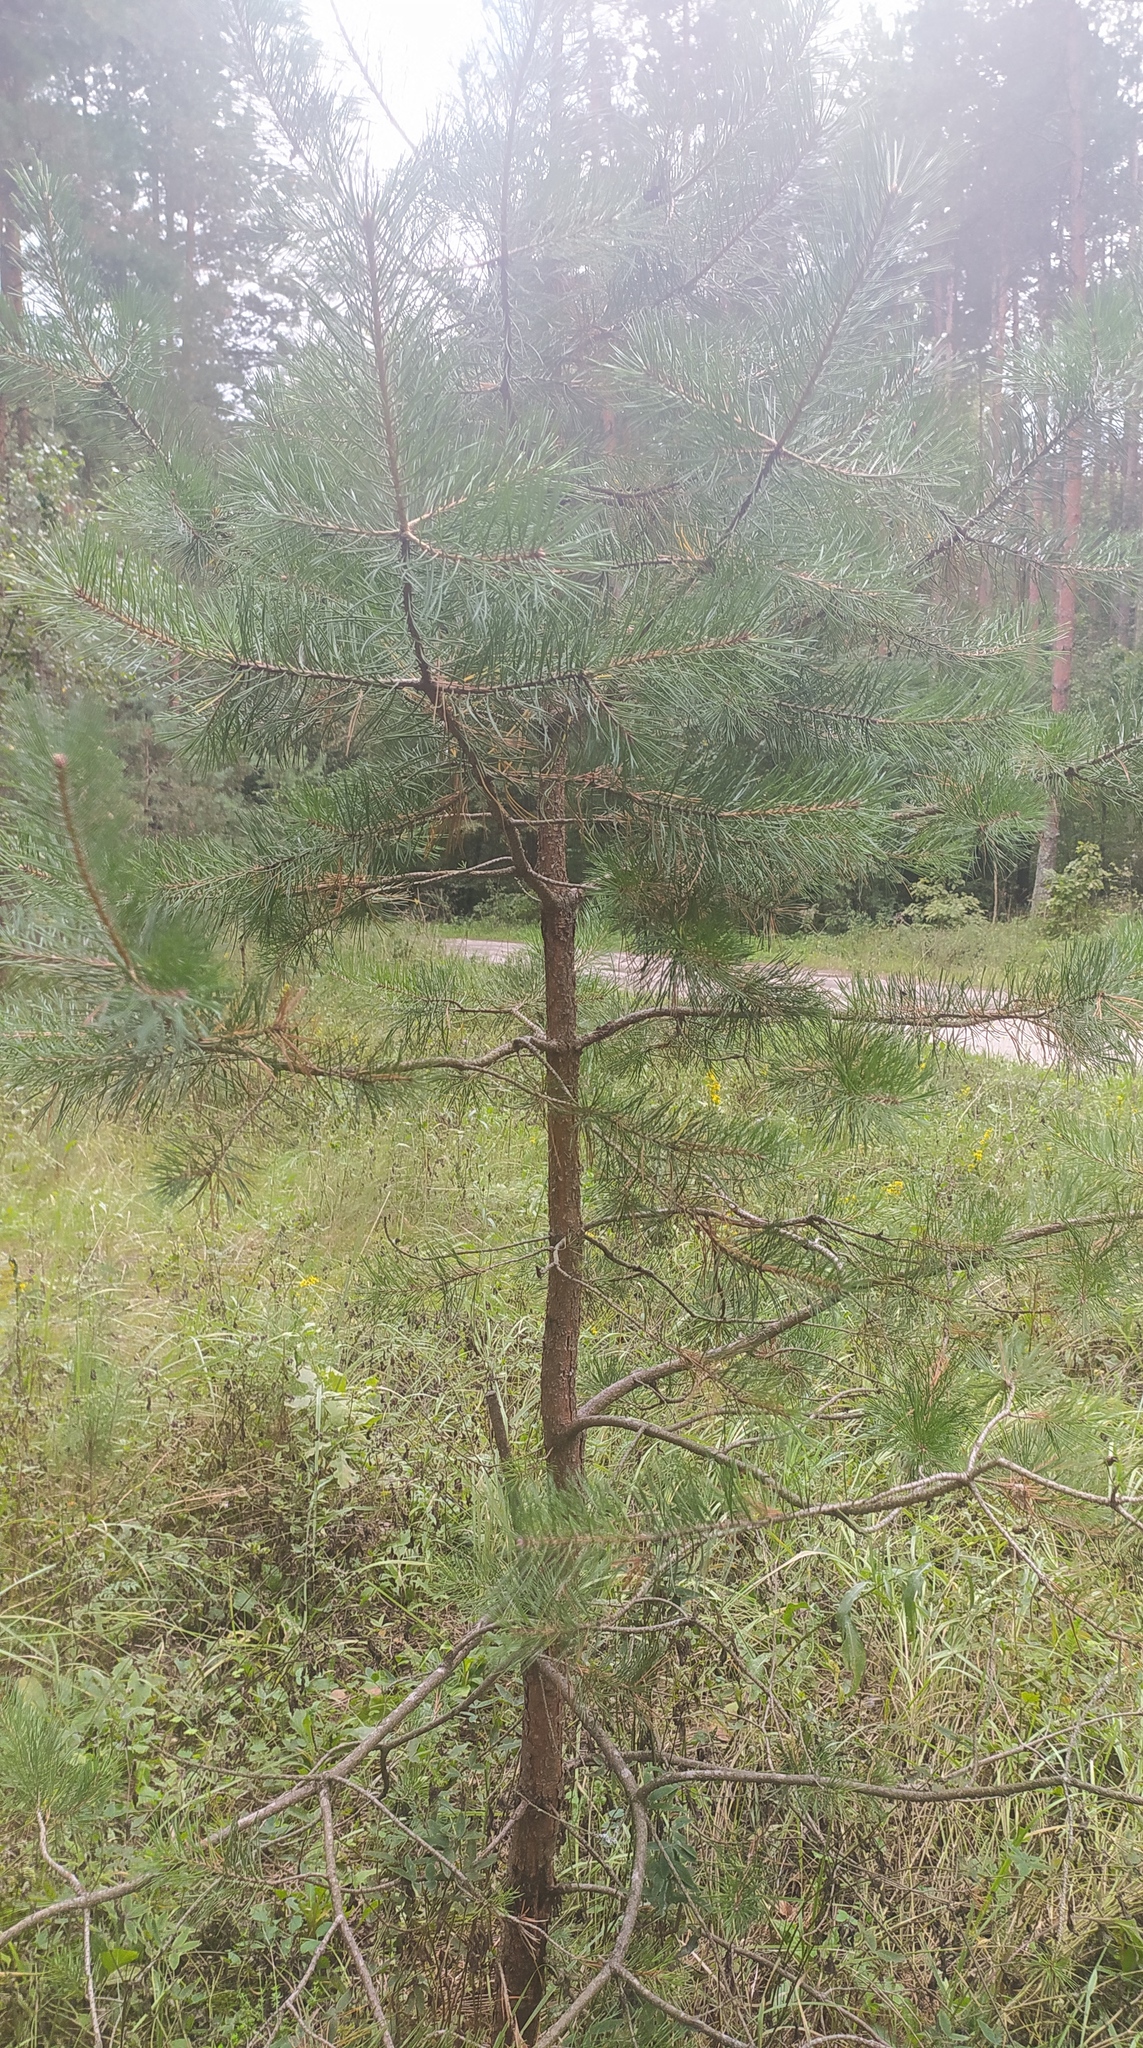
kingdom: Plantae
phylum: Tracheophyta
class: Pinopsida
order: Pinales
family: Pinaceae
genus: Pinus
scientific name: Pinus sylvestris
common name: Scots pine
